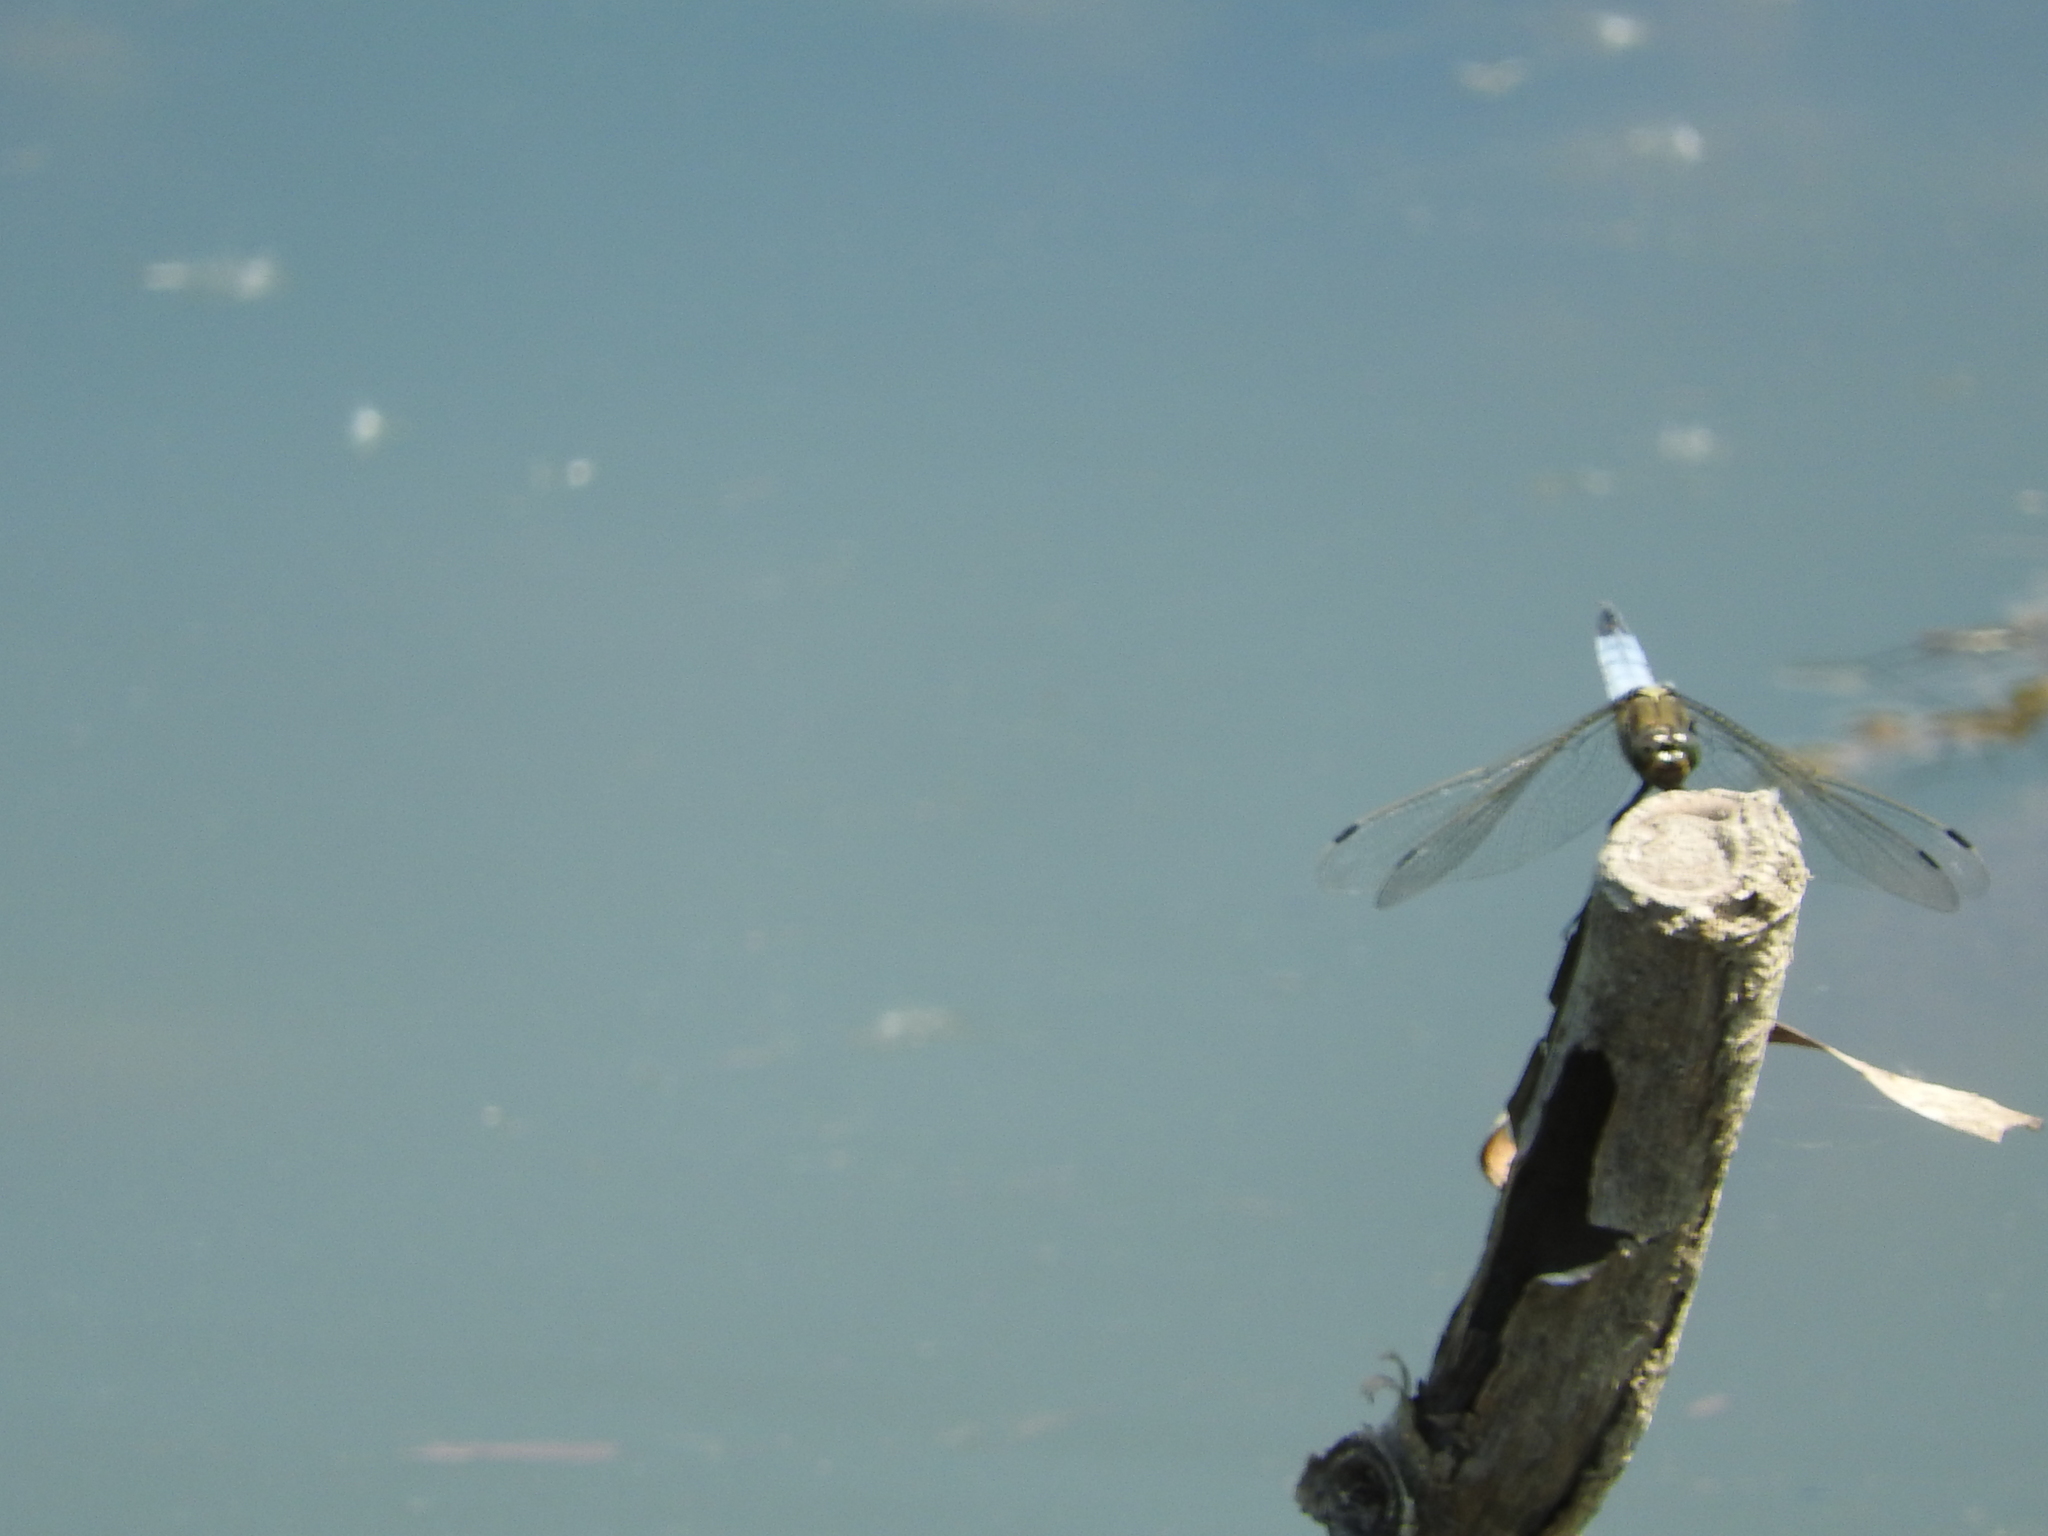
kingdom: Animalia
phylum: Arthropoda
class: Insecta
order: Odonata
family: Libellulidae
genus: Orthetrum
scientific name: Orthetrum cancellatum
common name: Black-tailed skimmer
